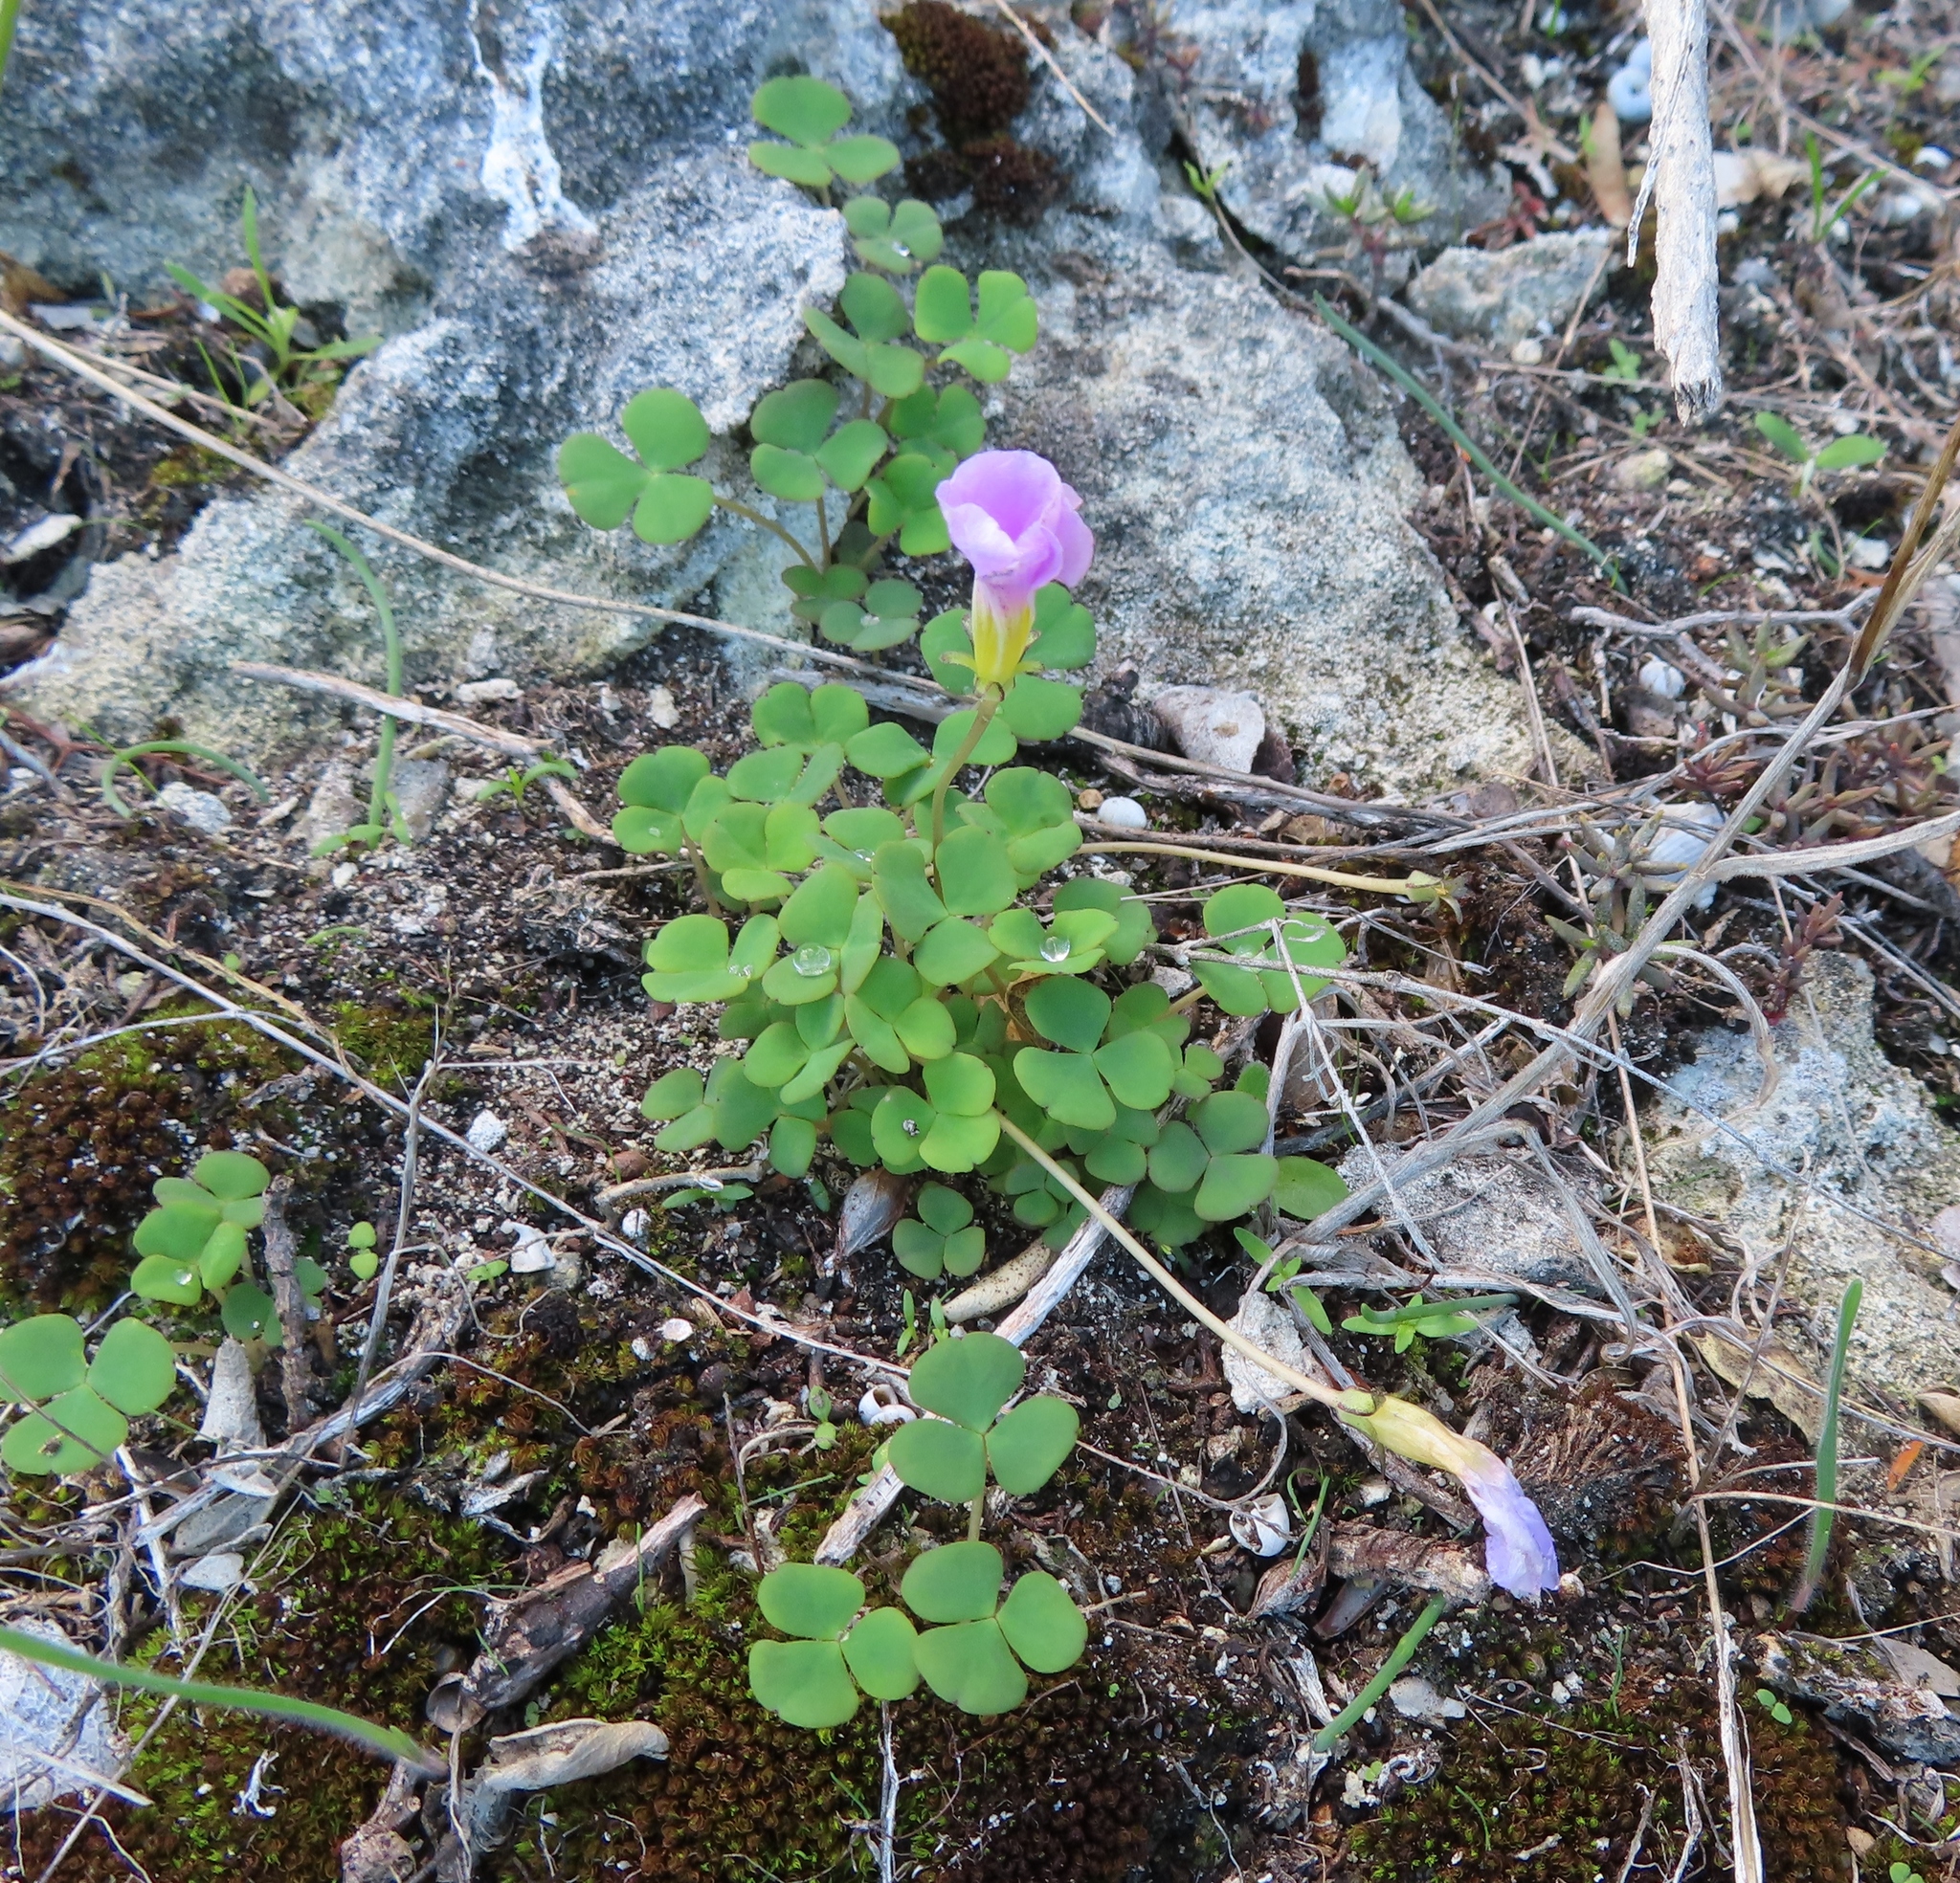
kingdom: Plantae
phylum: Tracheophyta
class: Magnoliopsida
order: Oxalidales
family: Oxalidaceae
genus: Oxalis
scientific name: Oxalis depressa
